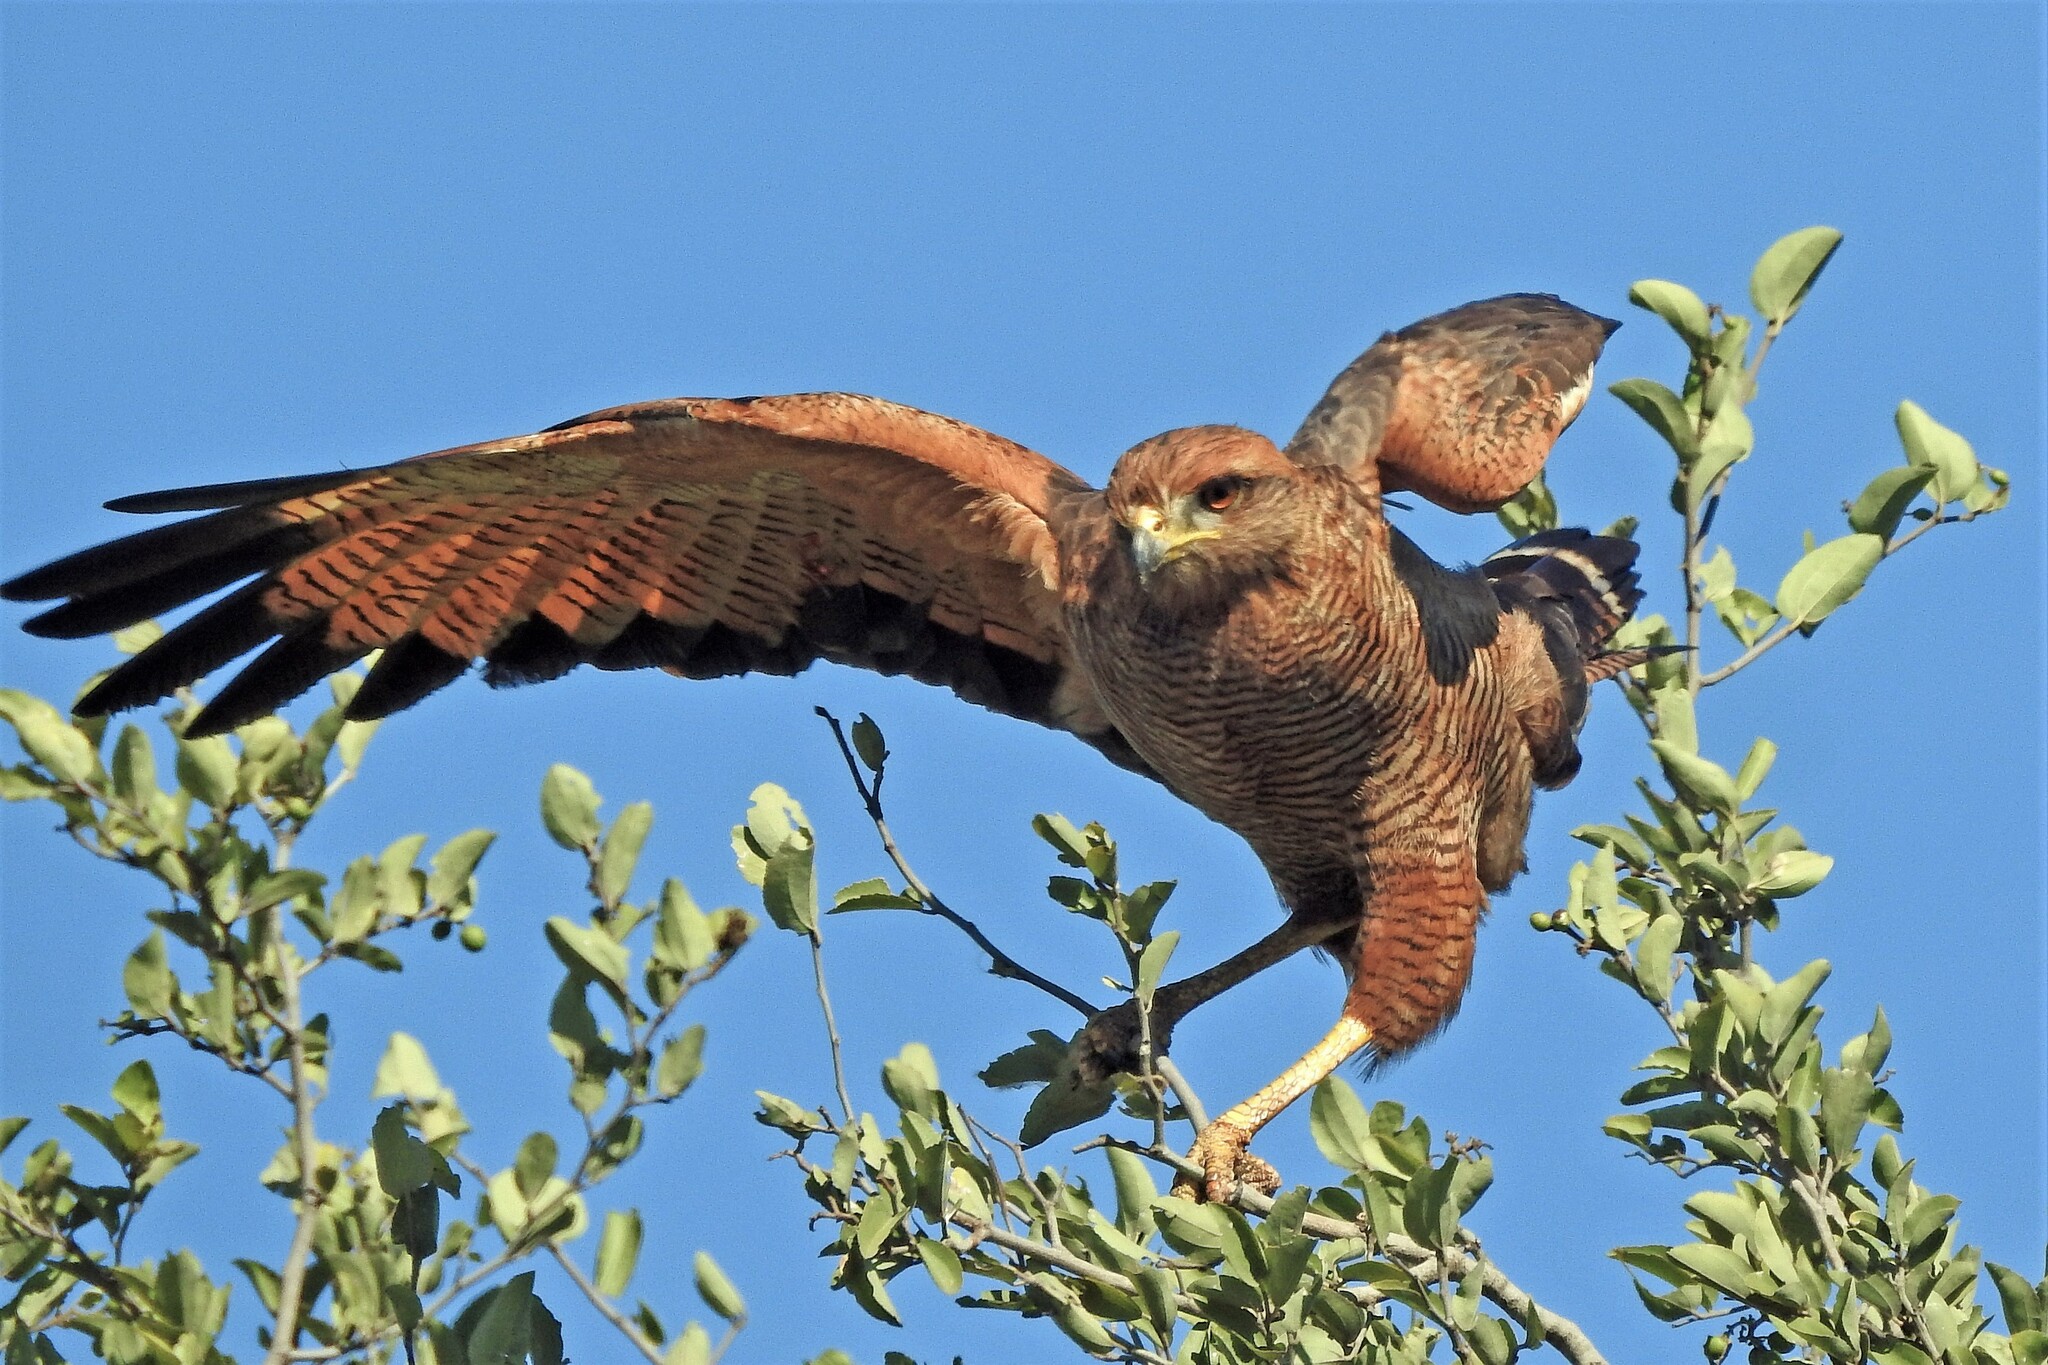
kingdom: Animalia
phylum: Chordata
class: Aves
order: Accipitriformes
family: Accipitridae
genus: Buteogallus
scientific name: Buteogallus meridionalis
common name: Savanna hawk
